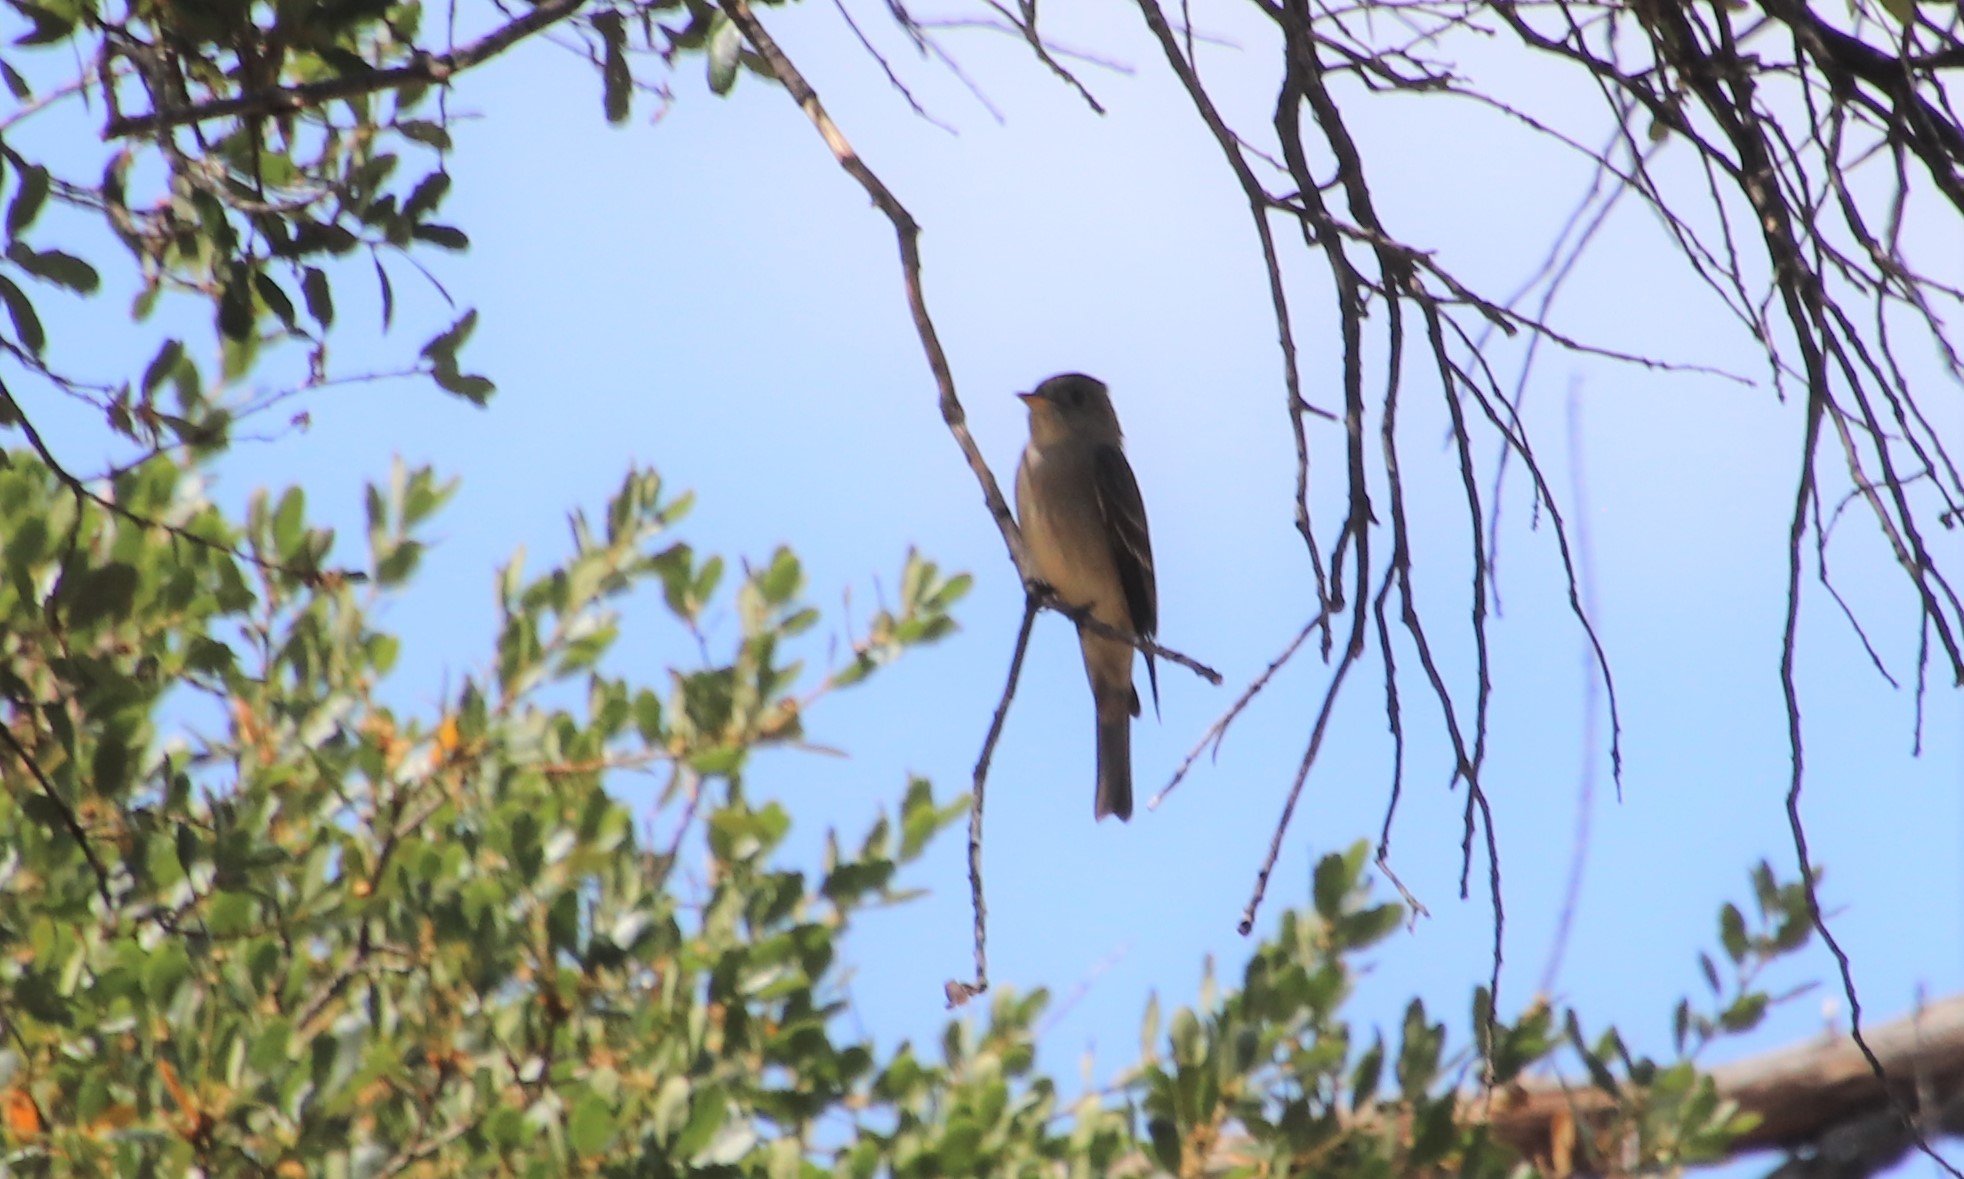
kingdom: Animalia
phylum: Chordata
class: Aves
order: Passeriformes
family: Tyrannidae
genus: Contopus
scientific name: Contopus sordidulus
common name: Western wood-pewee
